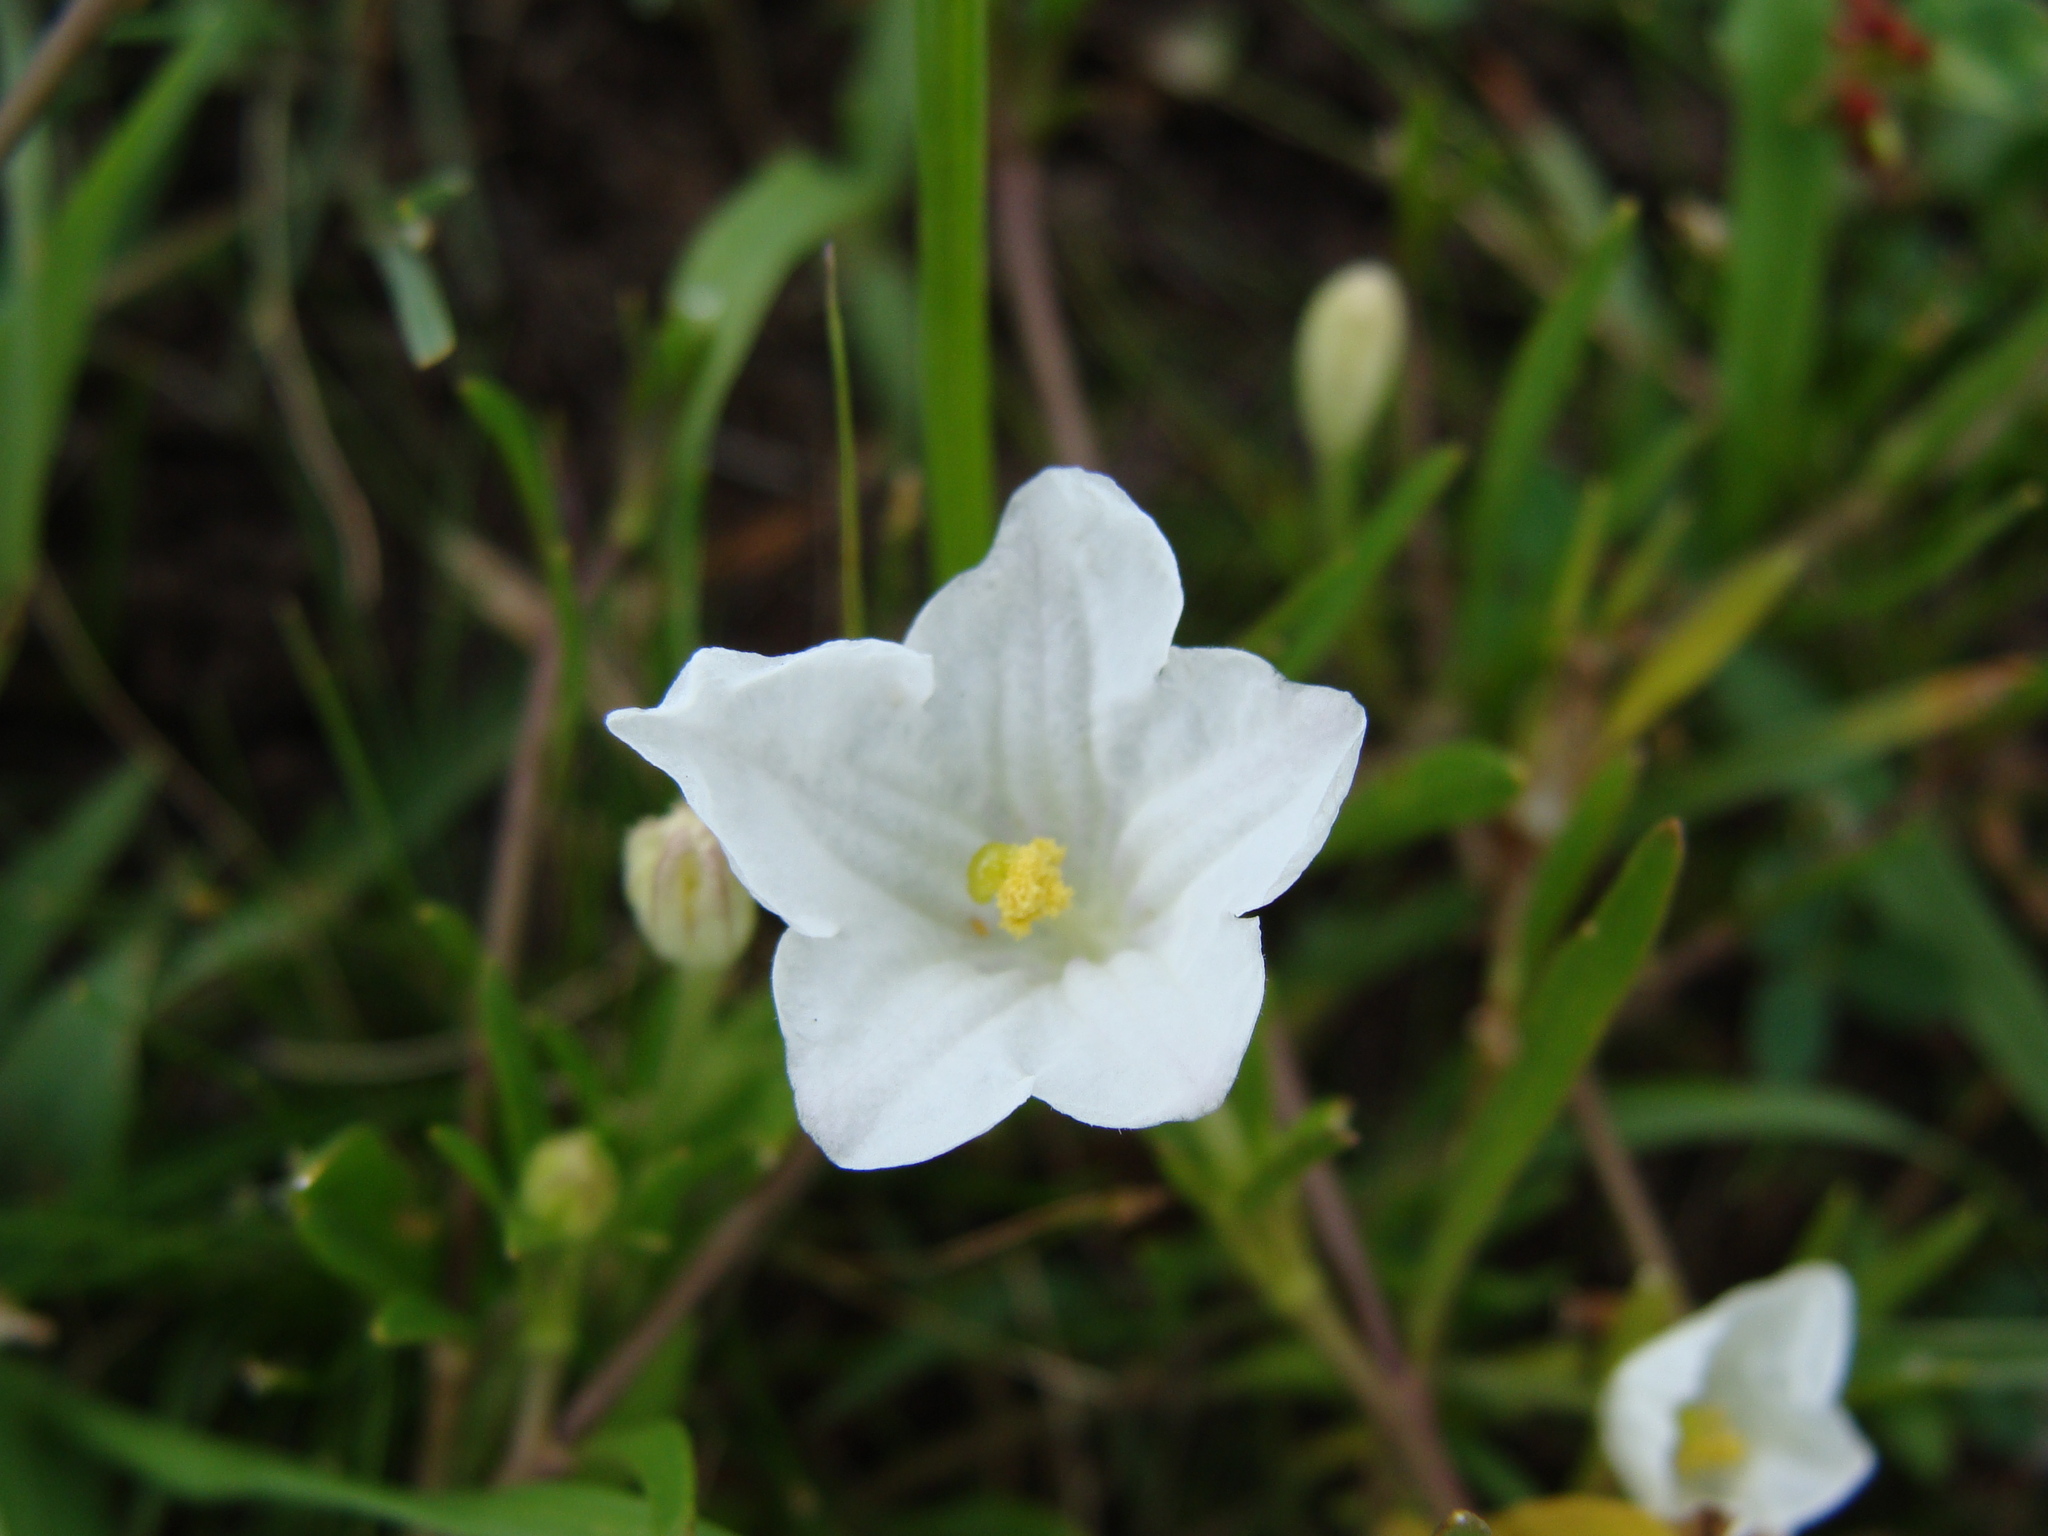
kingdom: Plantae
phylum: Tracheophyta
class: Magnoliopsida
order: Solanales
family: Solanaceae
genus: Salpiglossis
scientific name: Salpiglossis erecta
